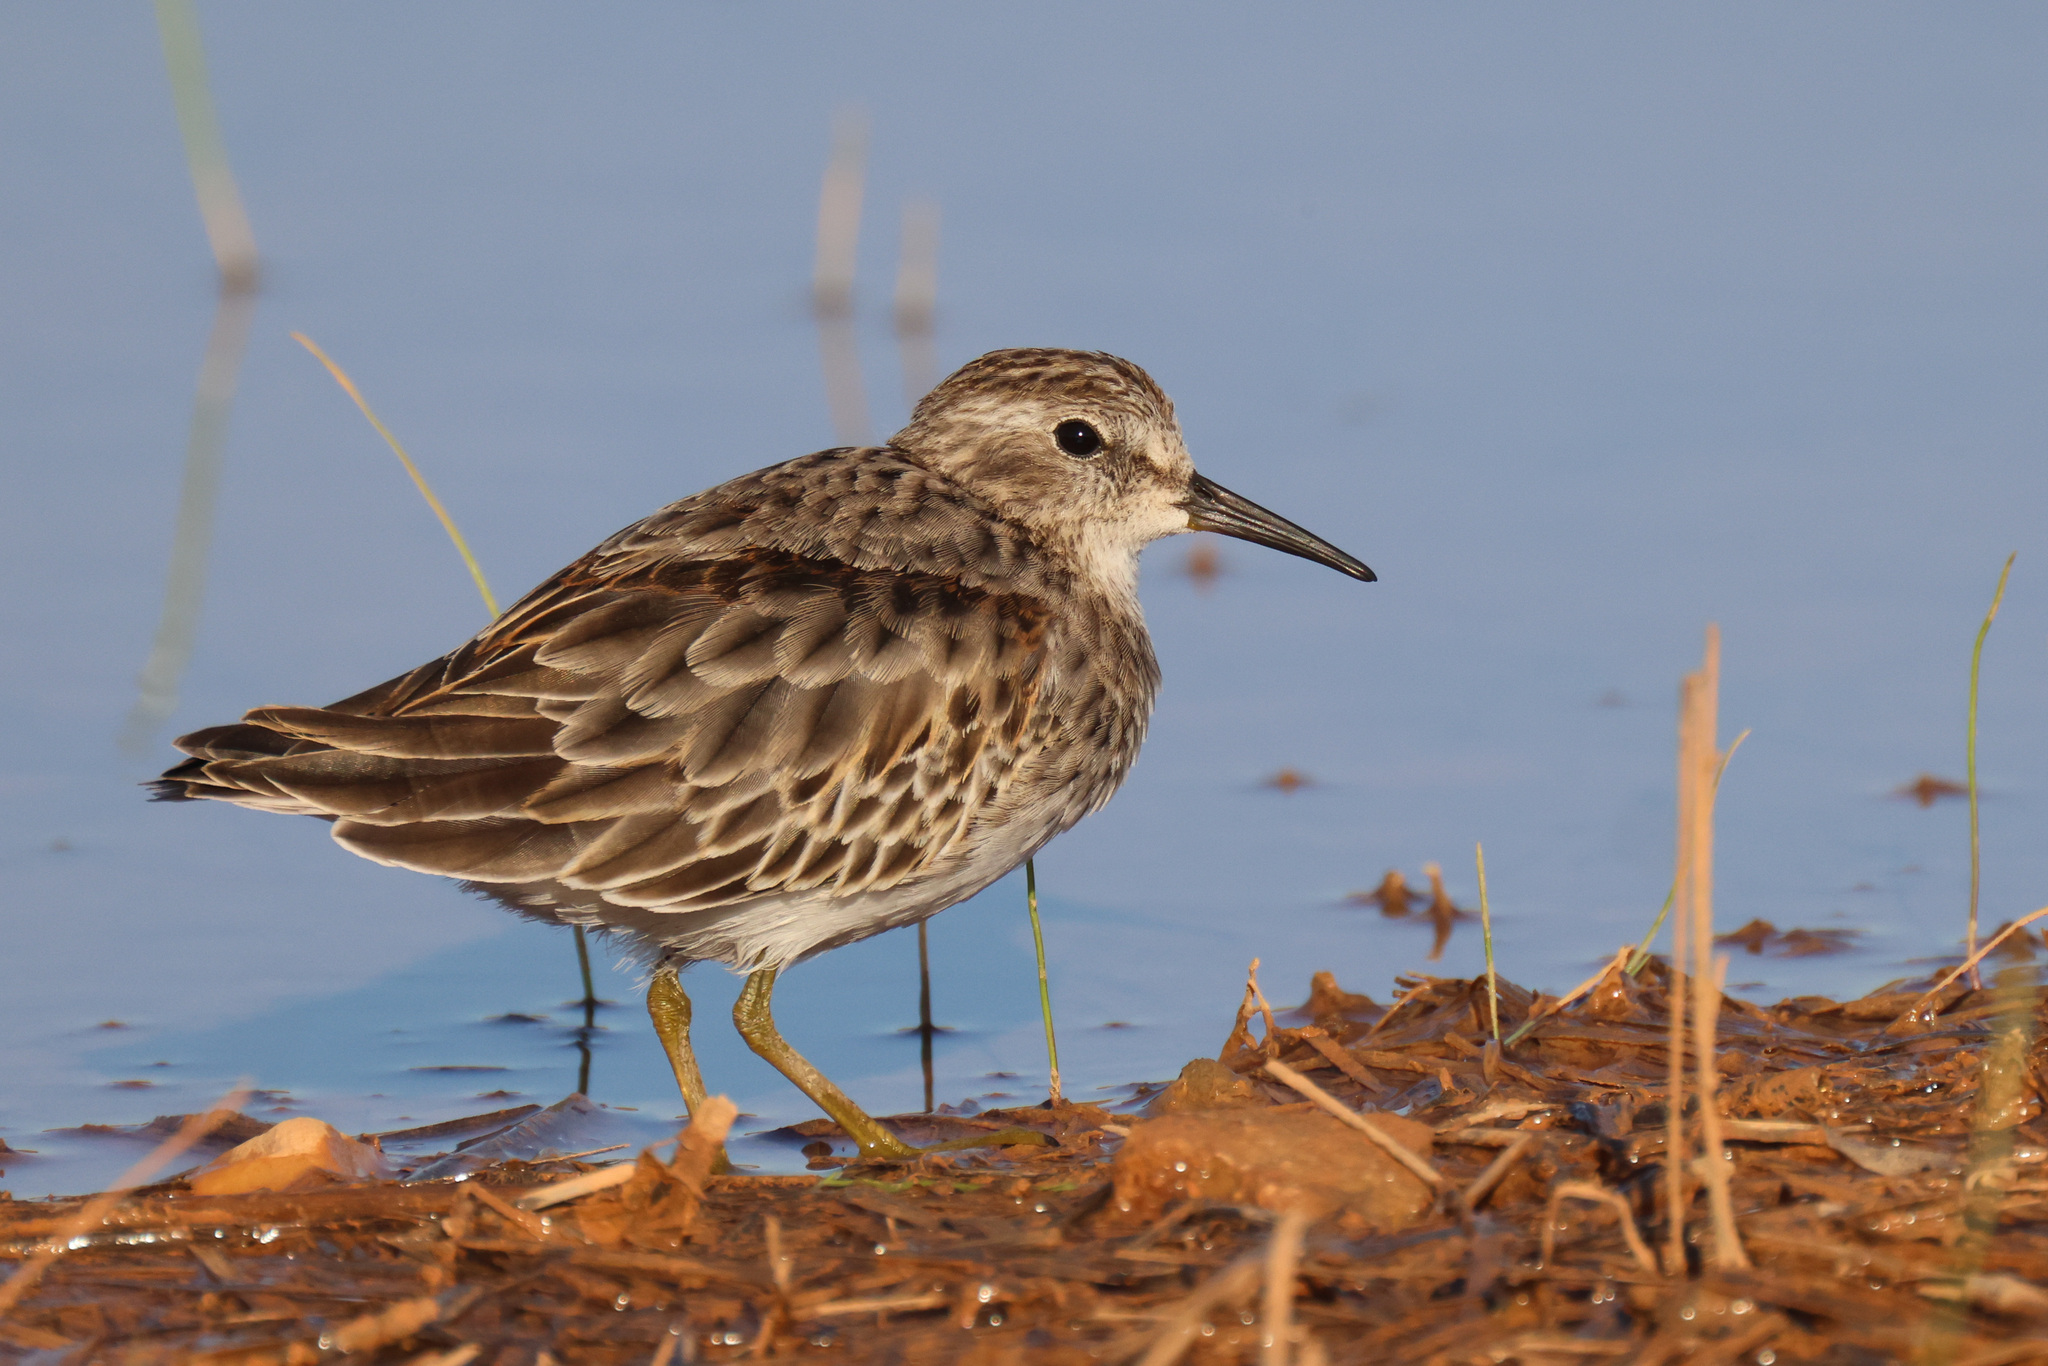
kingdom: Animalia
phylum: Chordata
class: Aves
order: Charadriiformes
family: Scolopacidae
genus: Calidris
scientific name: Calidris minutilla
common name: Least sandpiper
